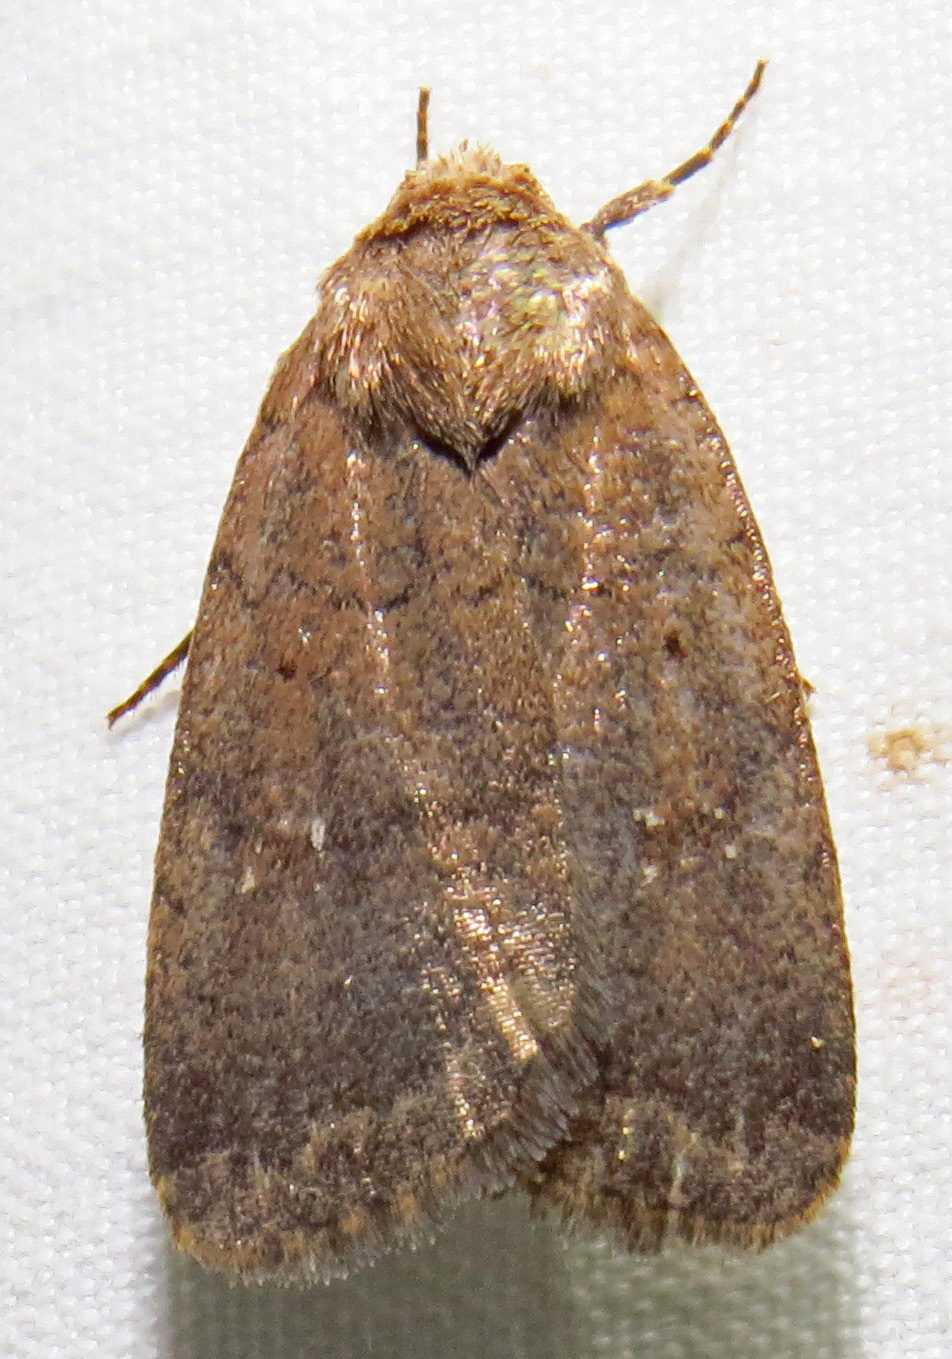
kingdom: Animalia
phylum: Arthropoda
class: Insecta
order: Lepidoptera
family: Noctuidae
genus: Athetis
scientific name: Athetis tarda
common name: Slowpoke moth
